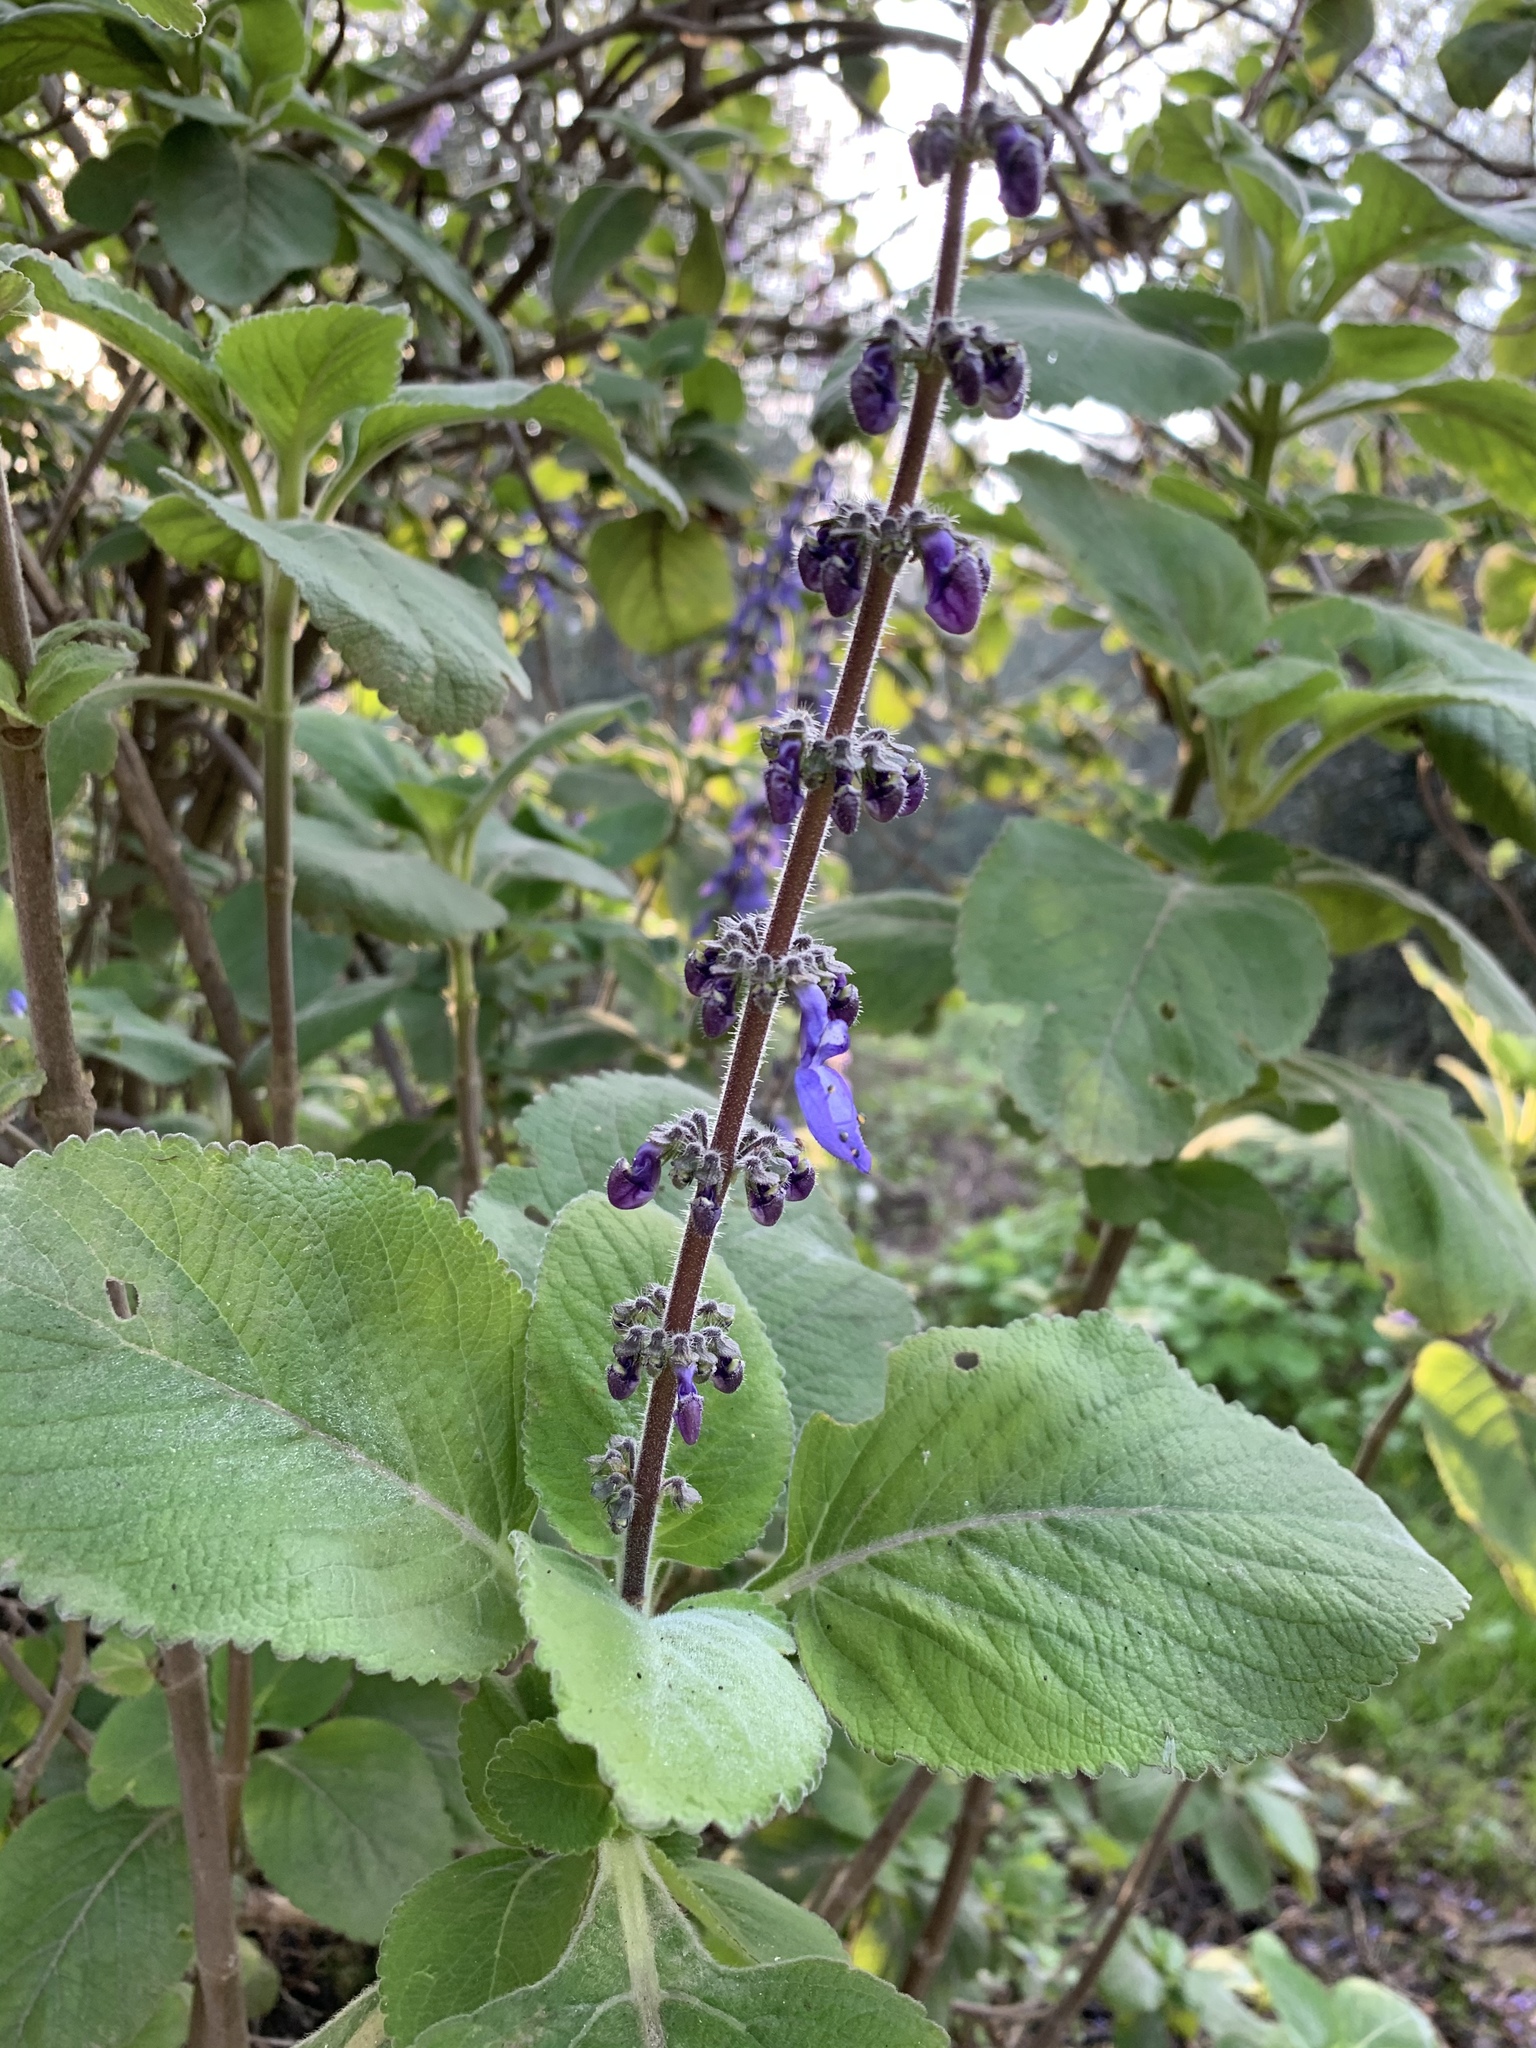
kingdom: Plantae
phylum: Tracheophyta
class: Magnoliopsida
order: Lamiales
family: Lamiaceae
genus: Coleus
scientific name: Coleus barbatus
